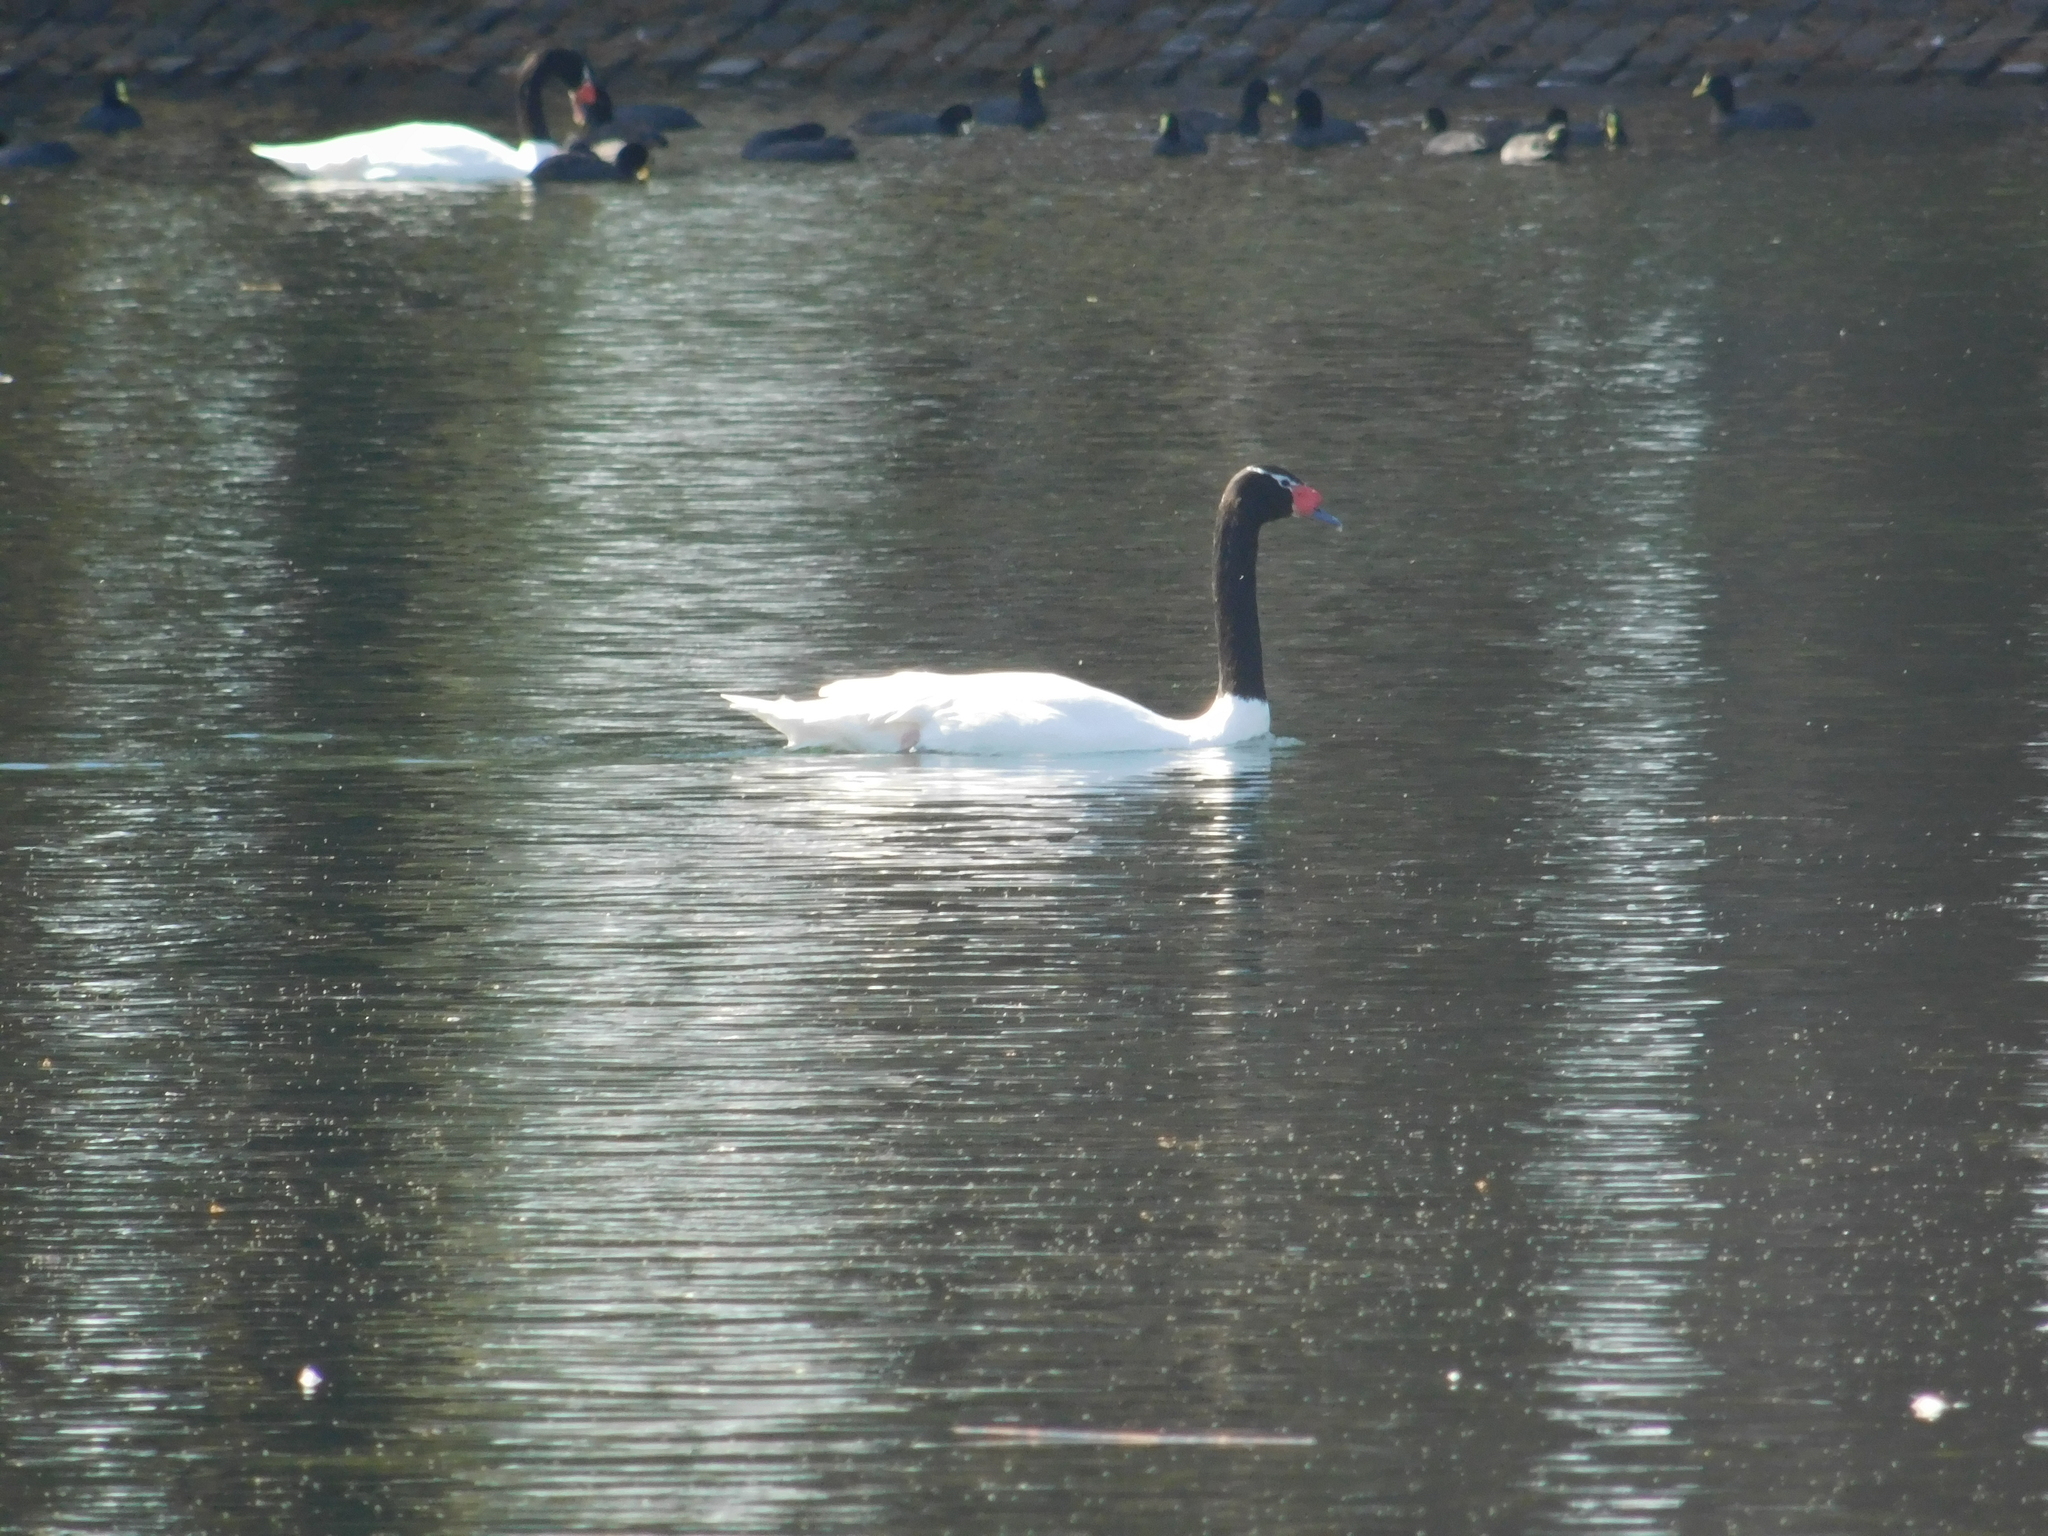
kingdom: Animalia
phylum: Chordata
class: Aves
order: Anseriformes
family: Anatidae
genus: Cygnus
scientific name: Cygnus melancoryphus
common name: Black-necked swan
